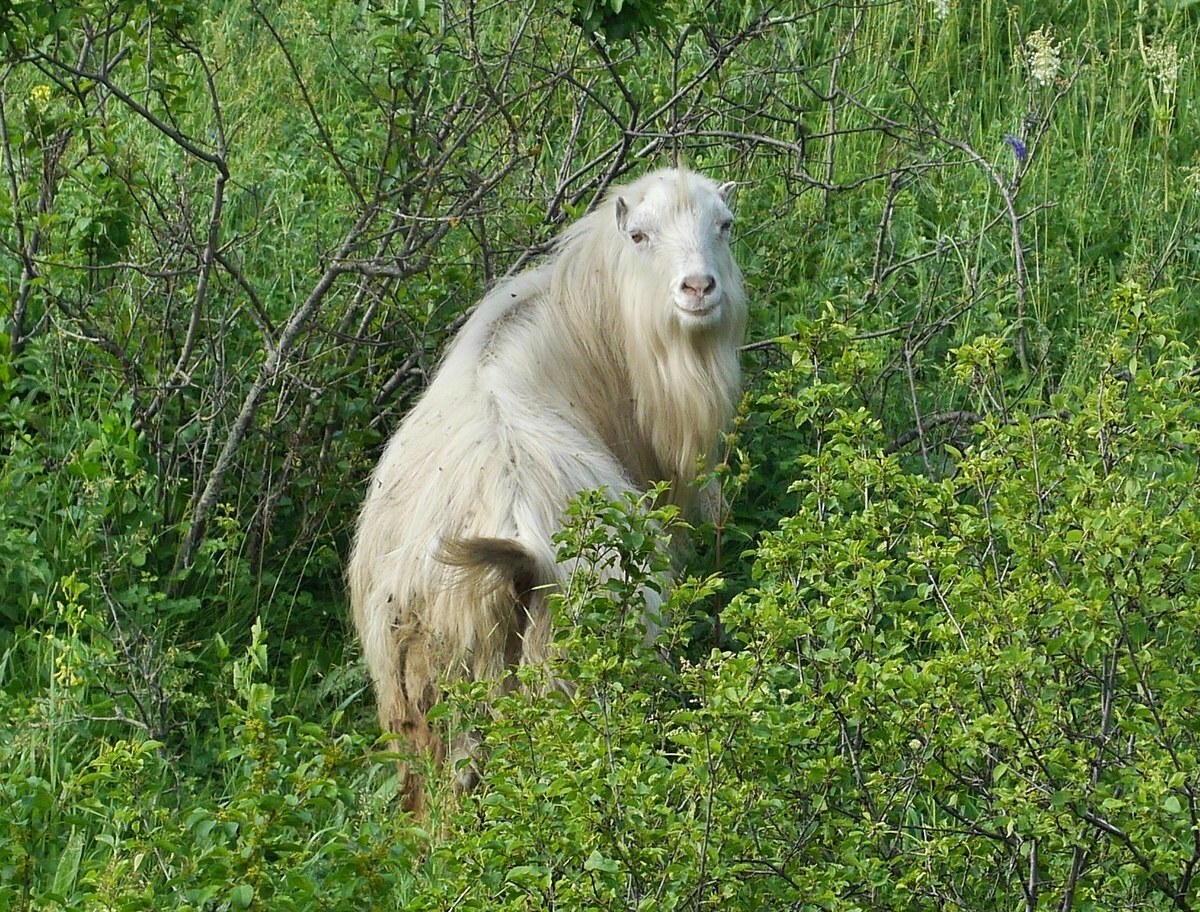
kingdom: Animalia
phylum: Chordata
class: Mammalia
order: Artiodactyla
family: Bovidae
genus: Ovis
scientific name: Ovis aries
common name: Domestic sheep
